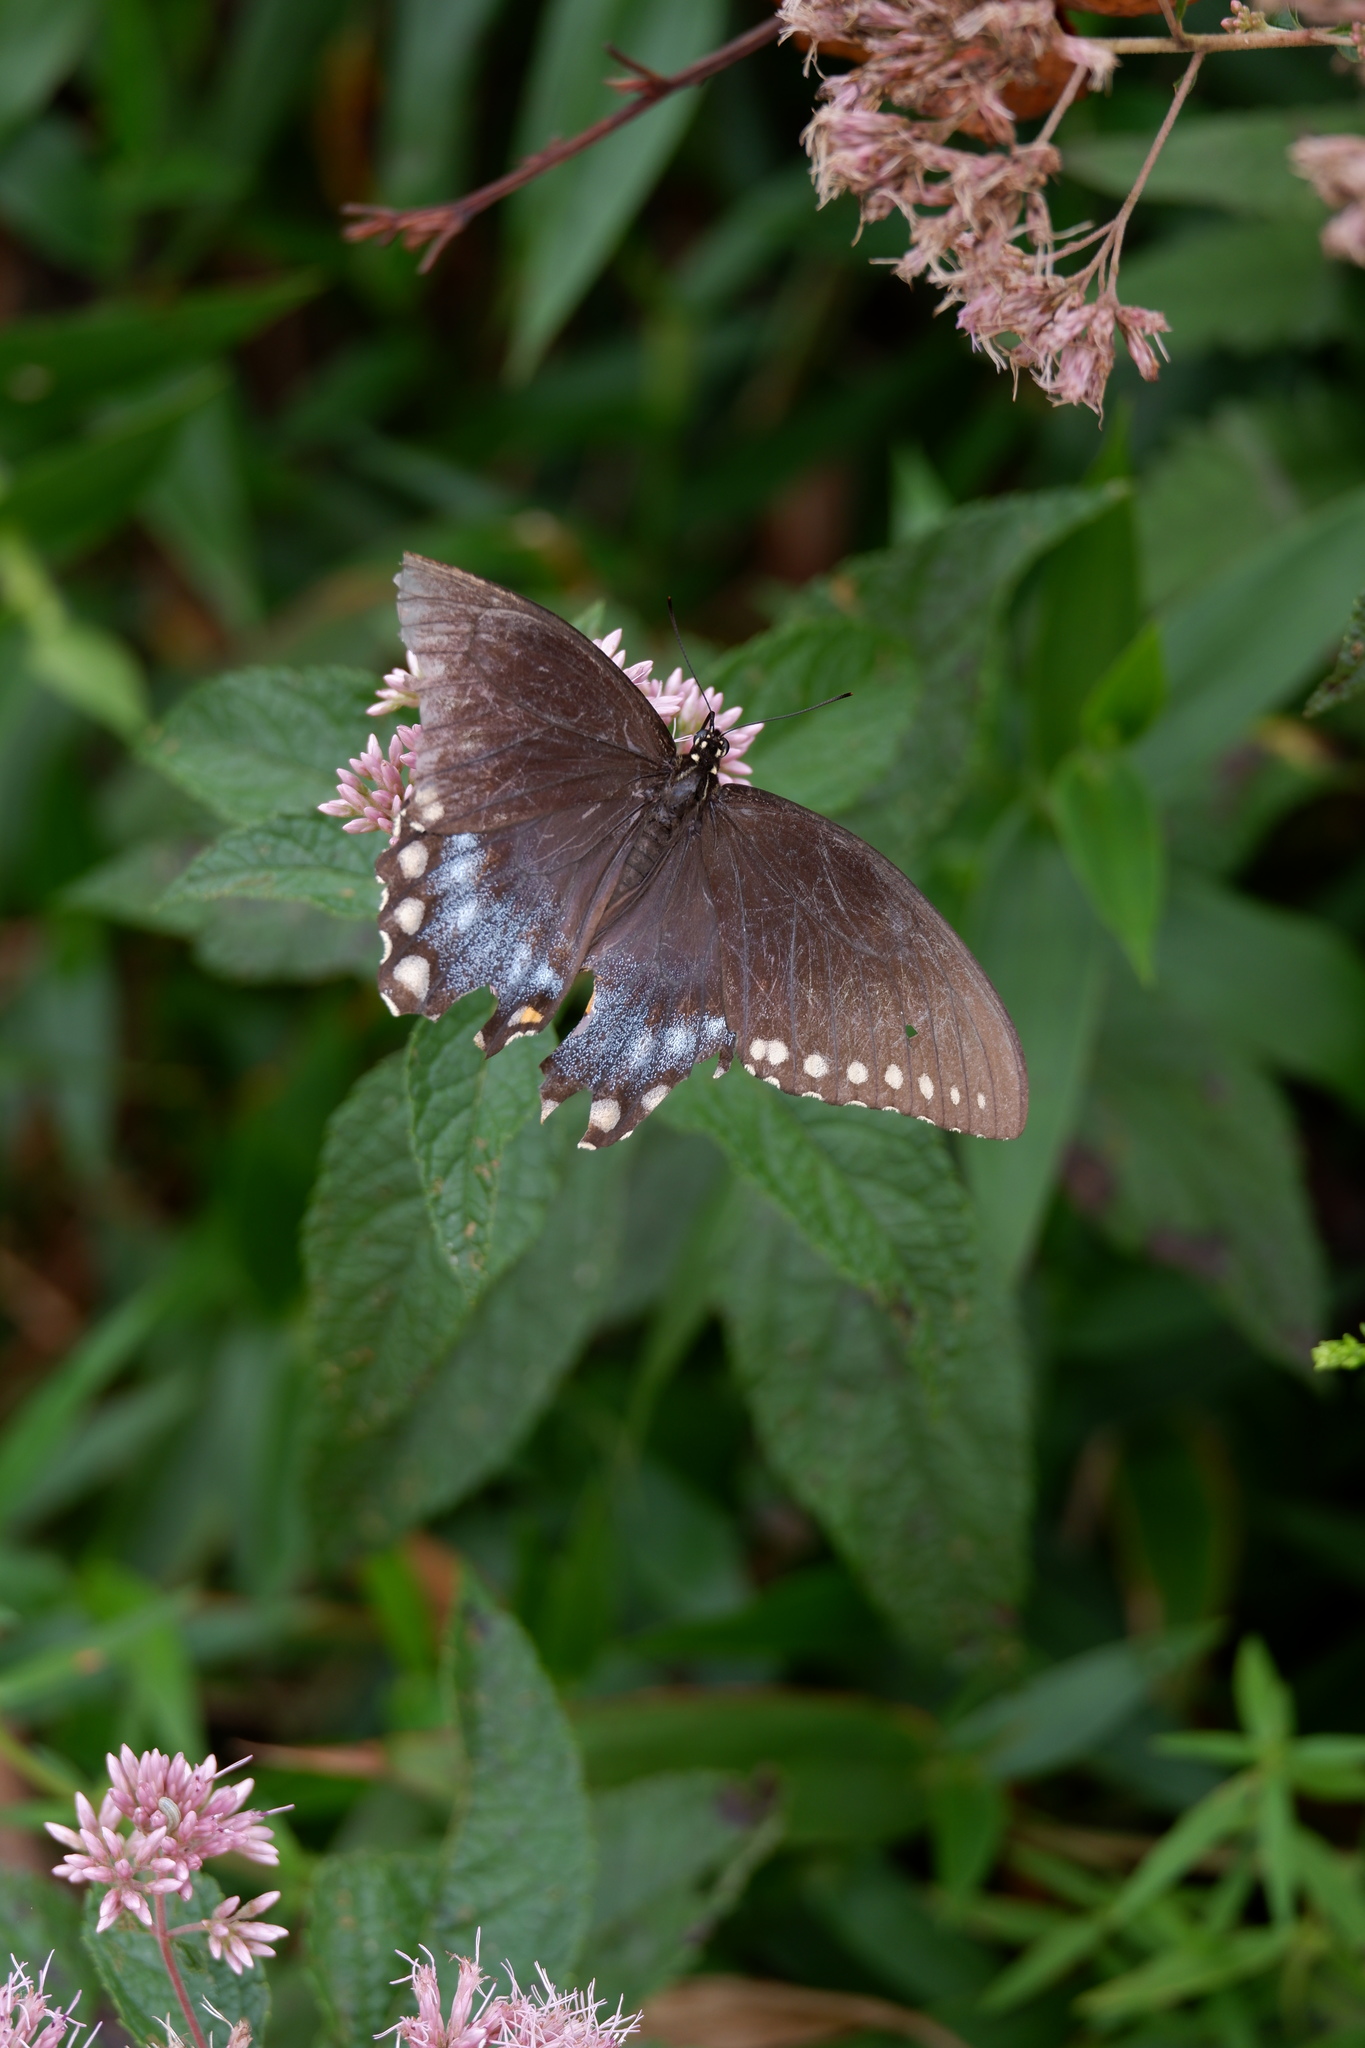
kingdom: Animalia
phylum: Arthropoda
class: Insecta
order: Lepidoptera
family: Papilionidae
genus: Papilio
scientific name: Papilio troilus
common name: Spicebush swallowtail
